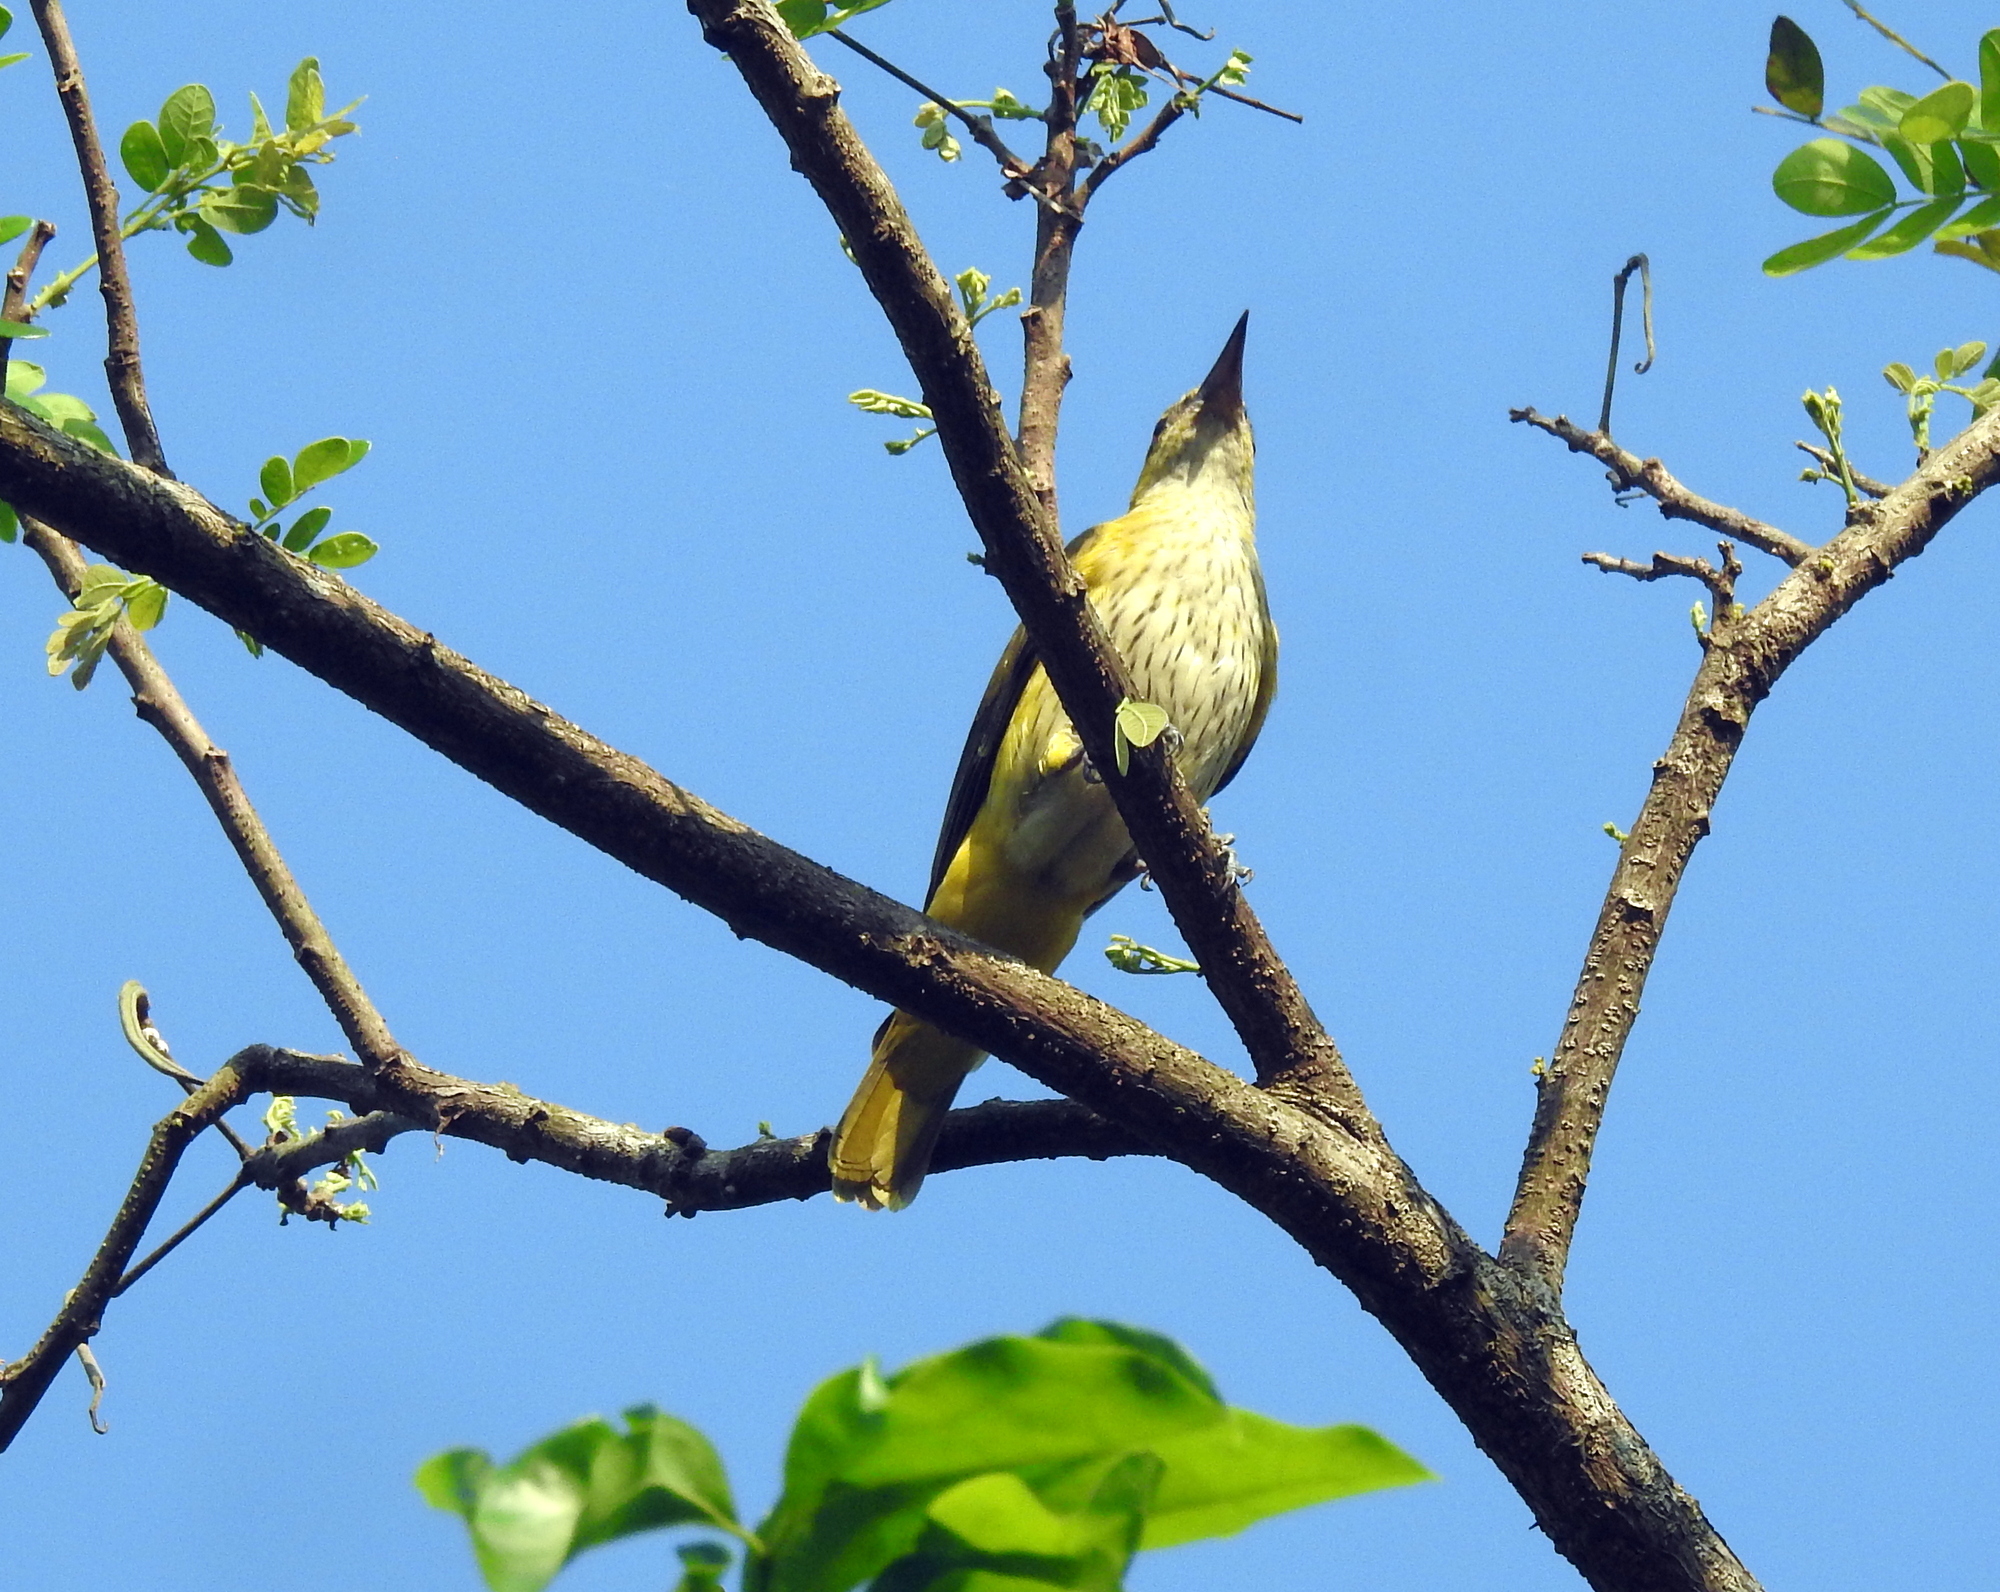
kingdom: Animalia
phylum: Chordata
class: Aves
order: Passeriformes
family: Oriolidae
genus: Oriolus
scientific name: Oriolus kundoo
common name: Indian golden oriole
